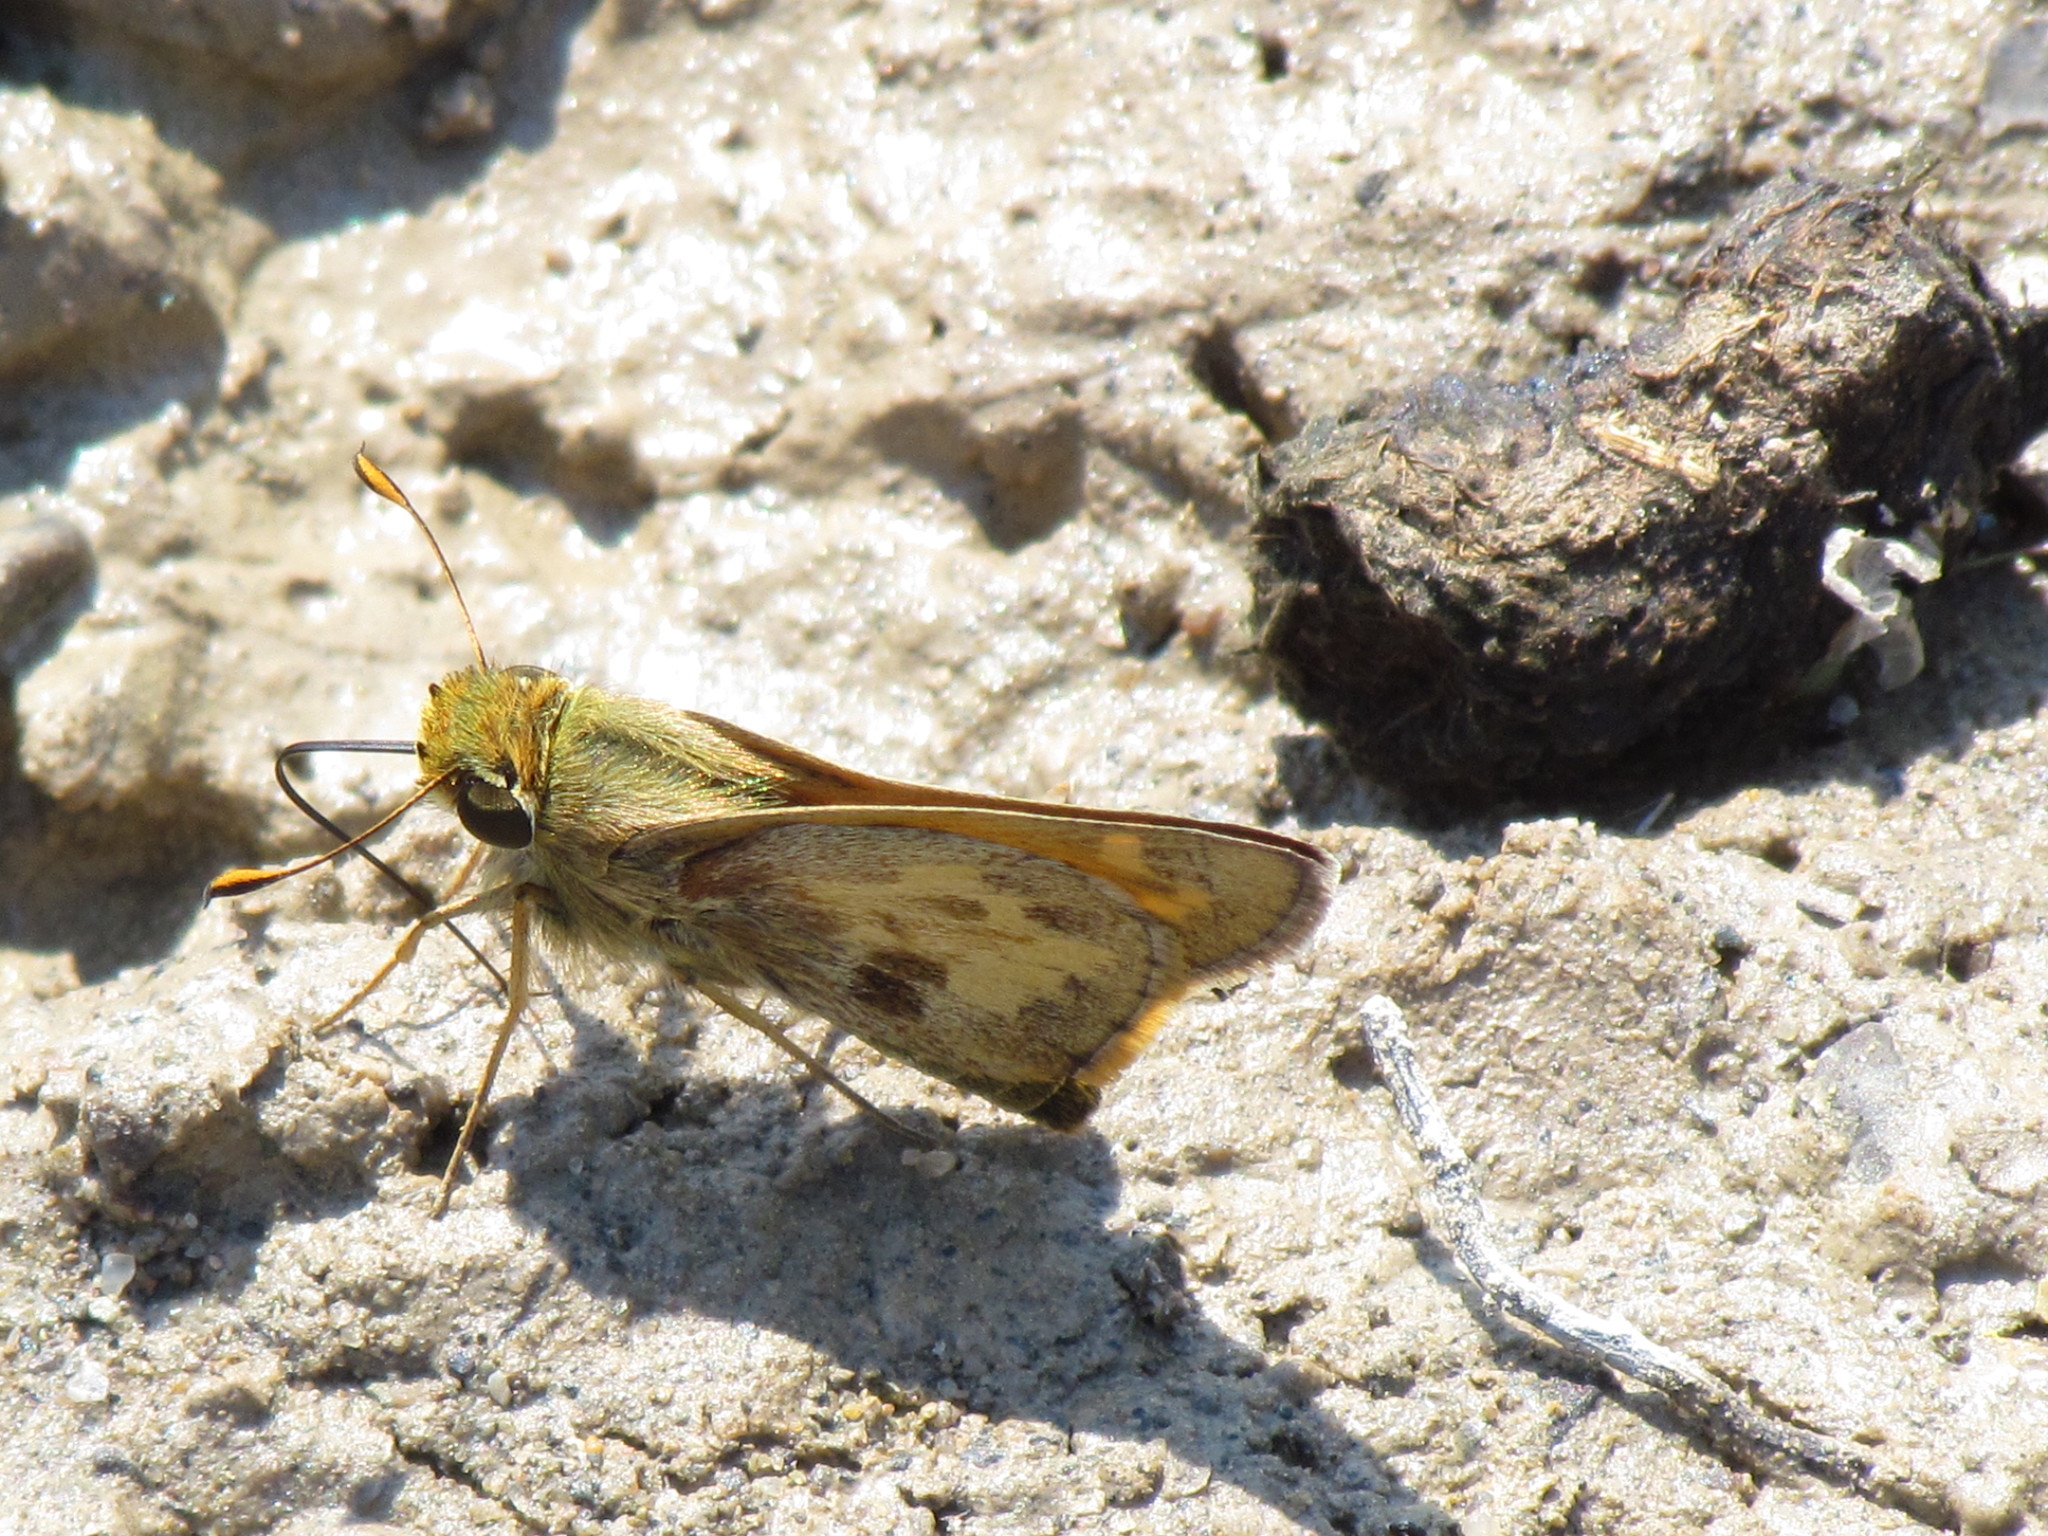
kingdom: Animalia
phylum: Arthropoda
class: Insecta
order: Lepidoptera
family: Hesperiidae
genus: Atalopedes
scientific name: Atalopedes
